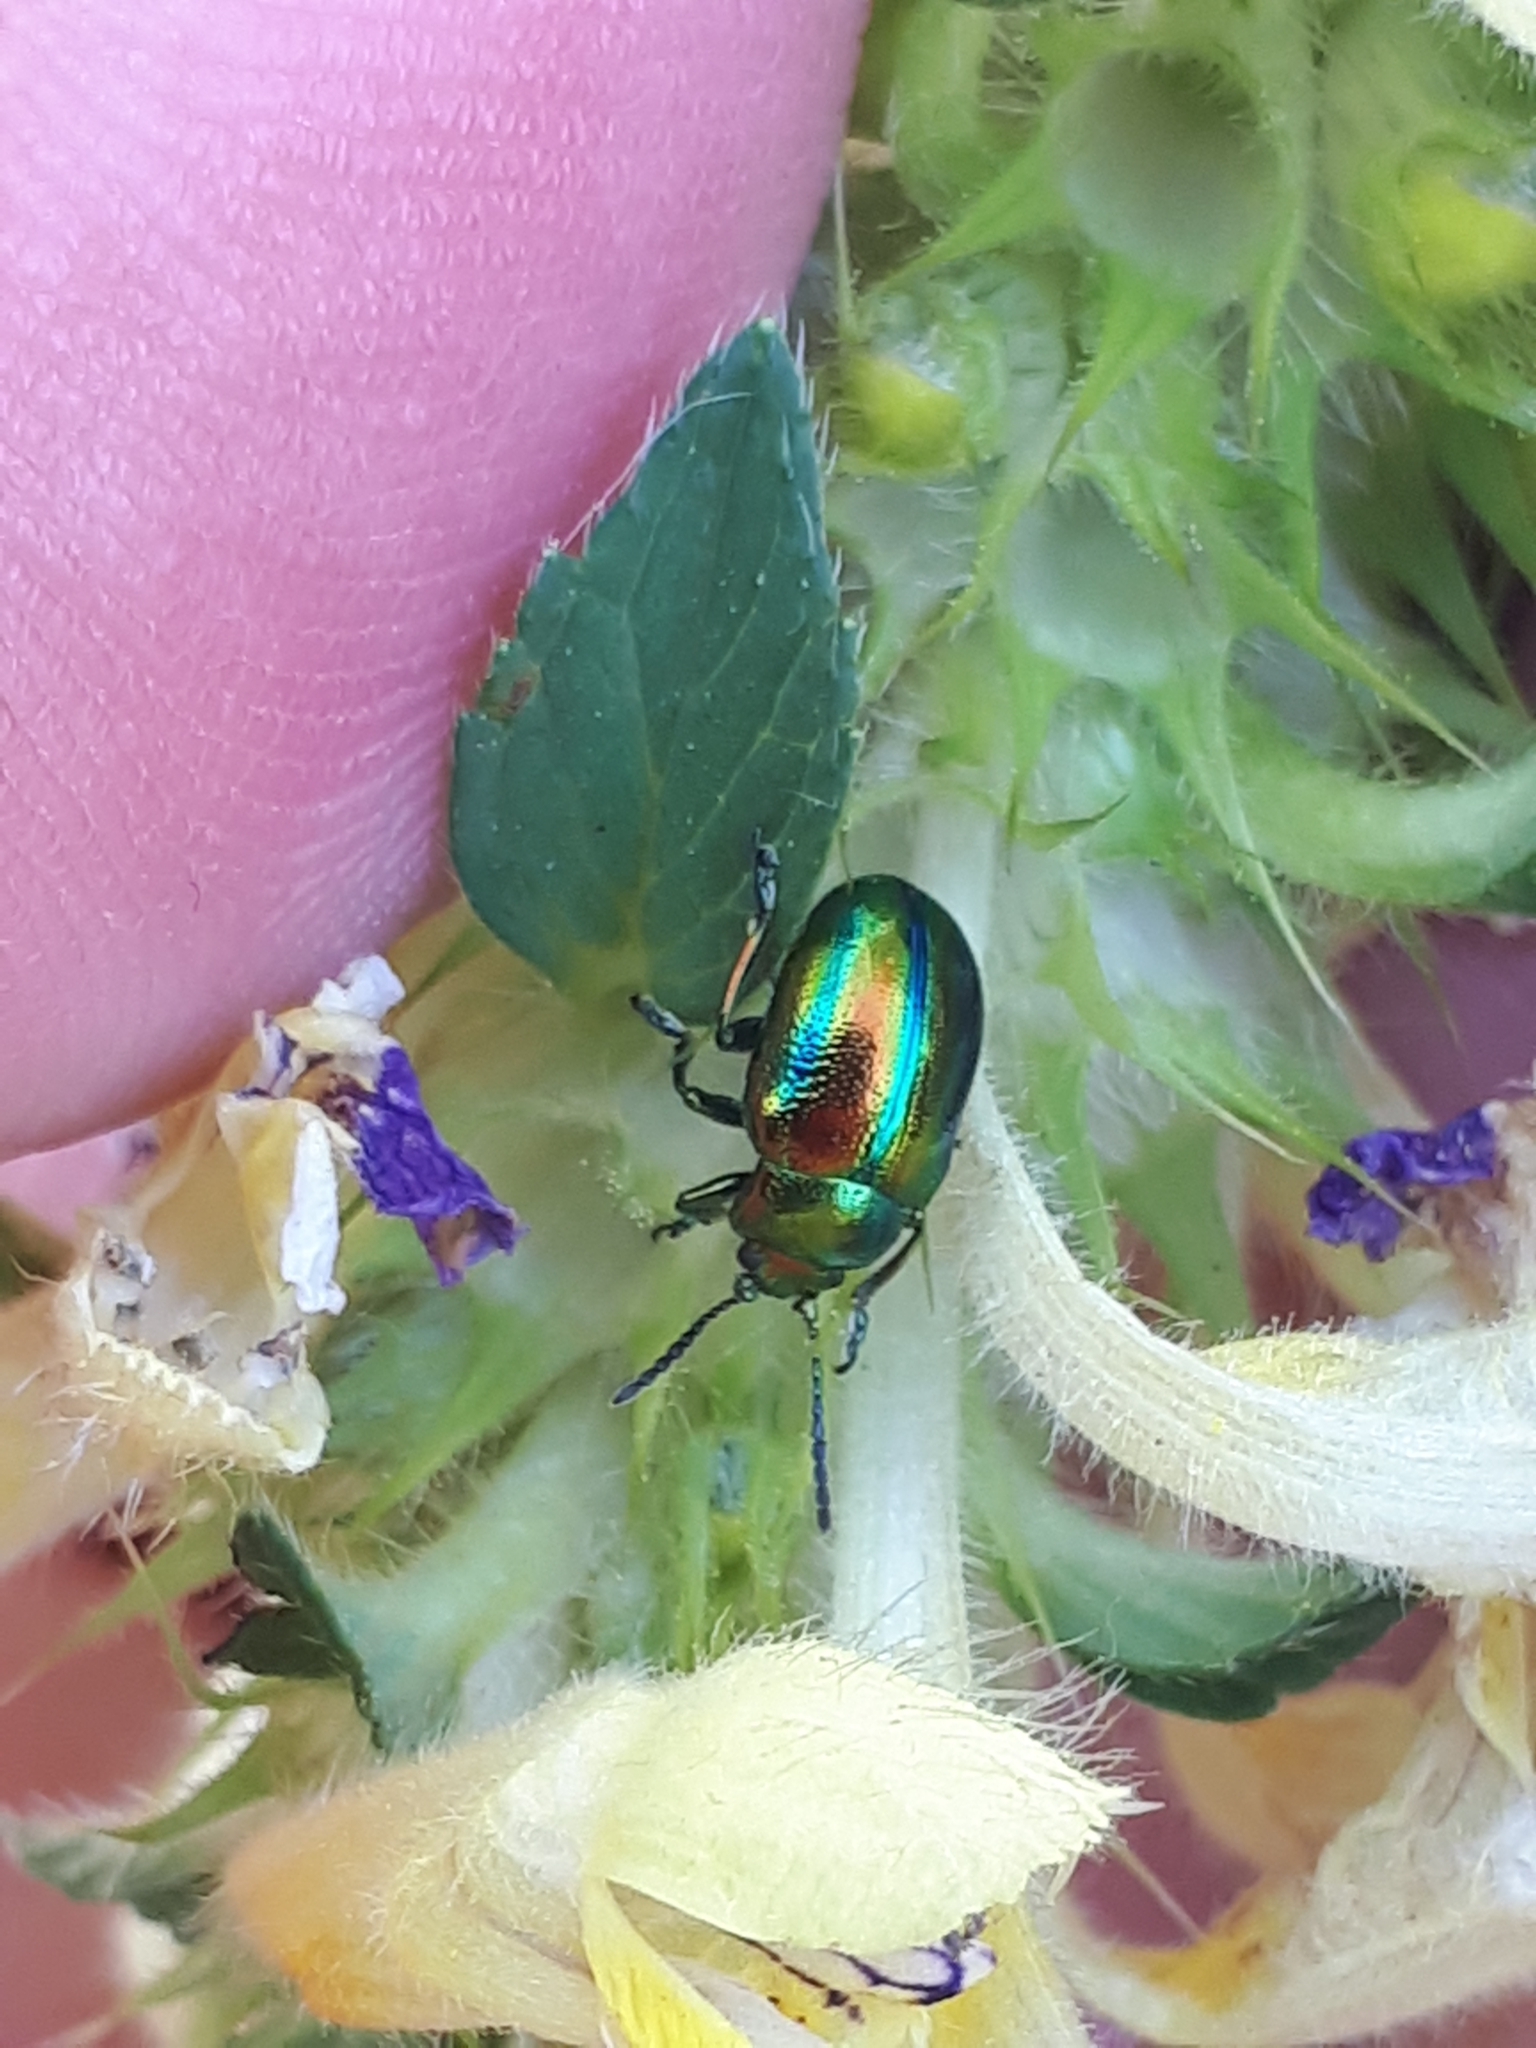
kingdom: Animalia
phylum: Arthropoda
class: Insecta
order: Coleoptera
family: Chrysomelidae
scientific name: Chrysomelidae
